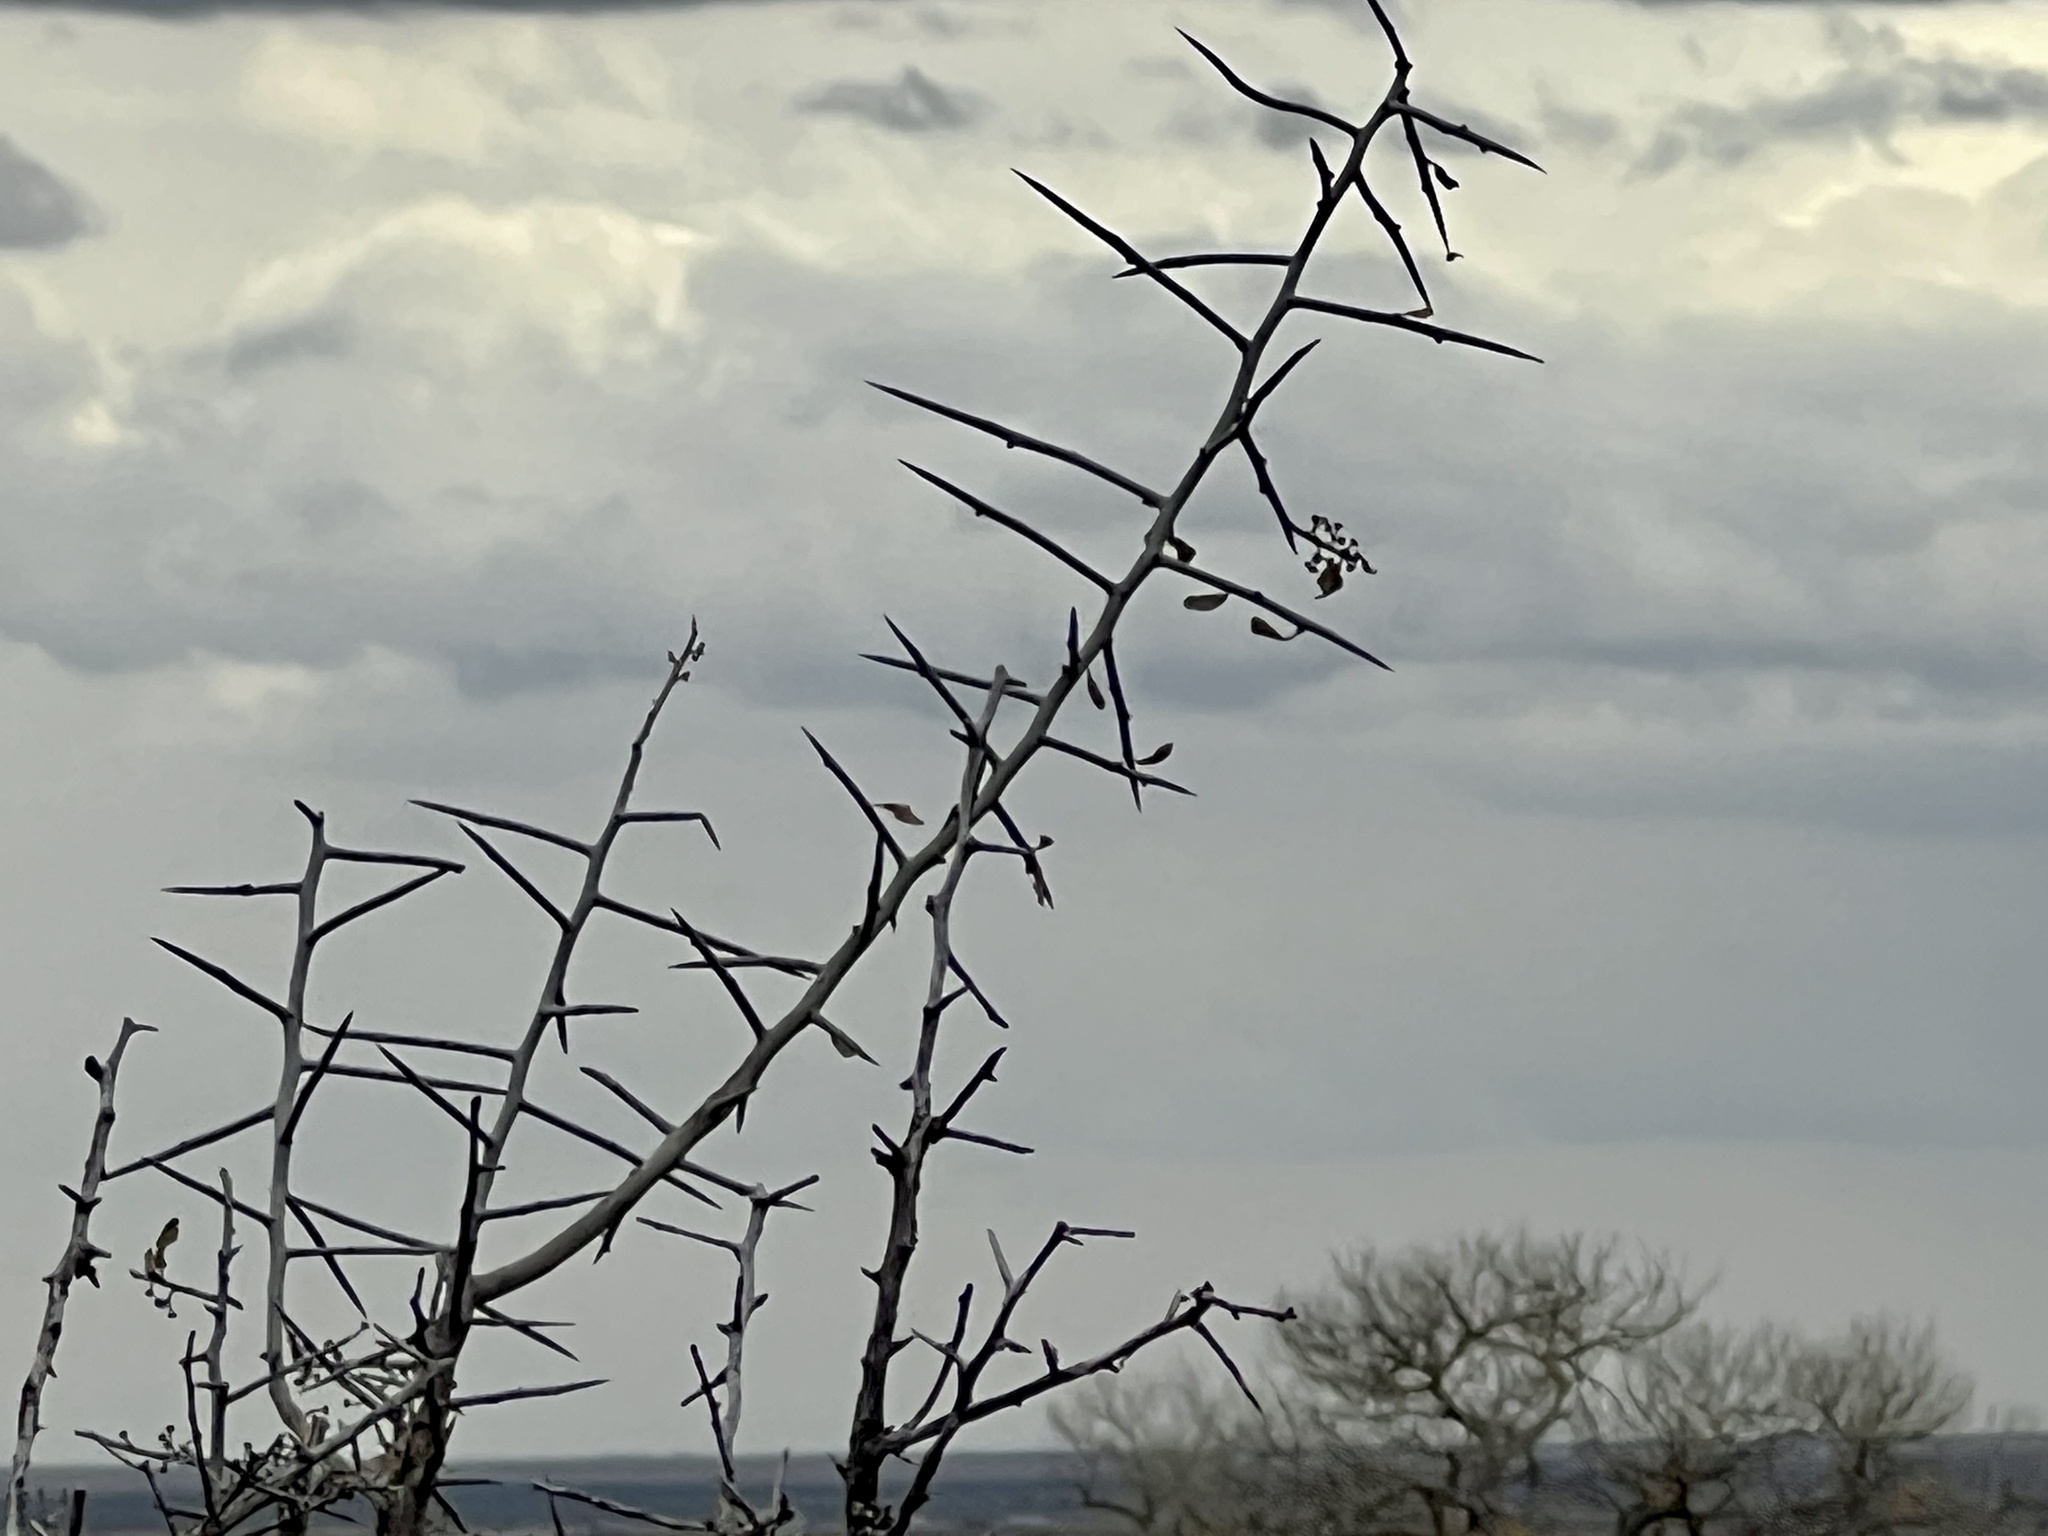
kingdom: Plantae
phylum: Tracheophyta
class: Magnoliopsida
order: Rosales
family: Rhamnaceae
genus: Sarcomphalus
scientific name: Sarcomphalus obtusifolius
